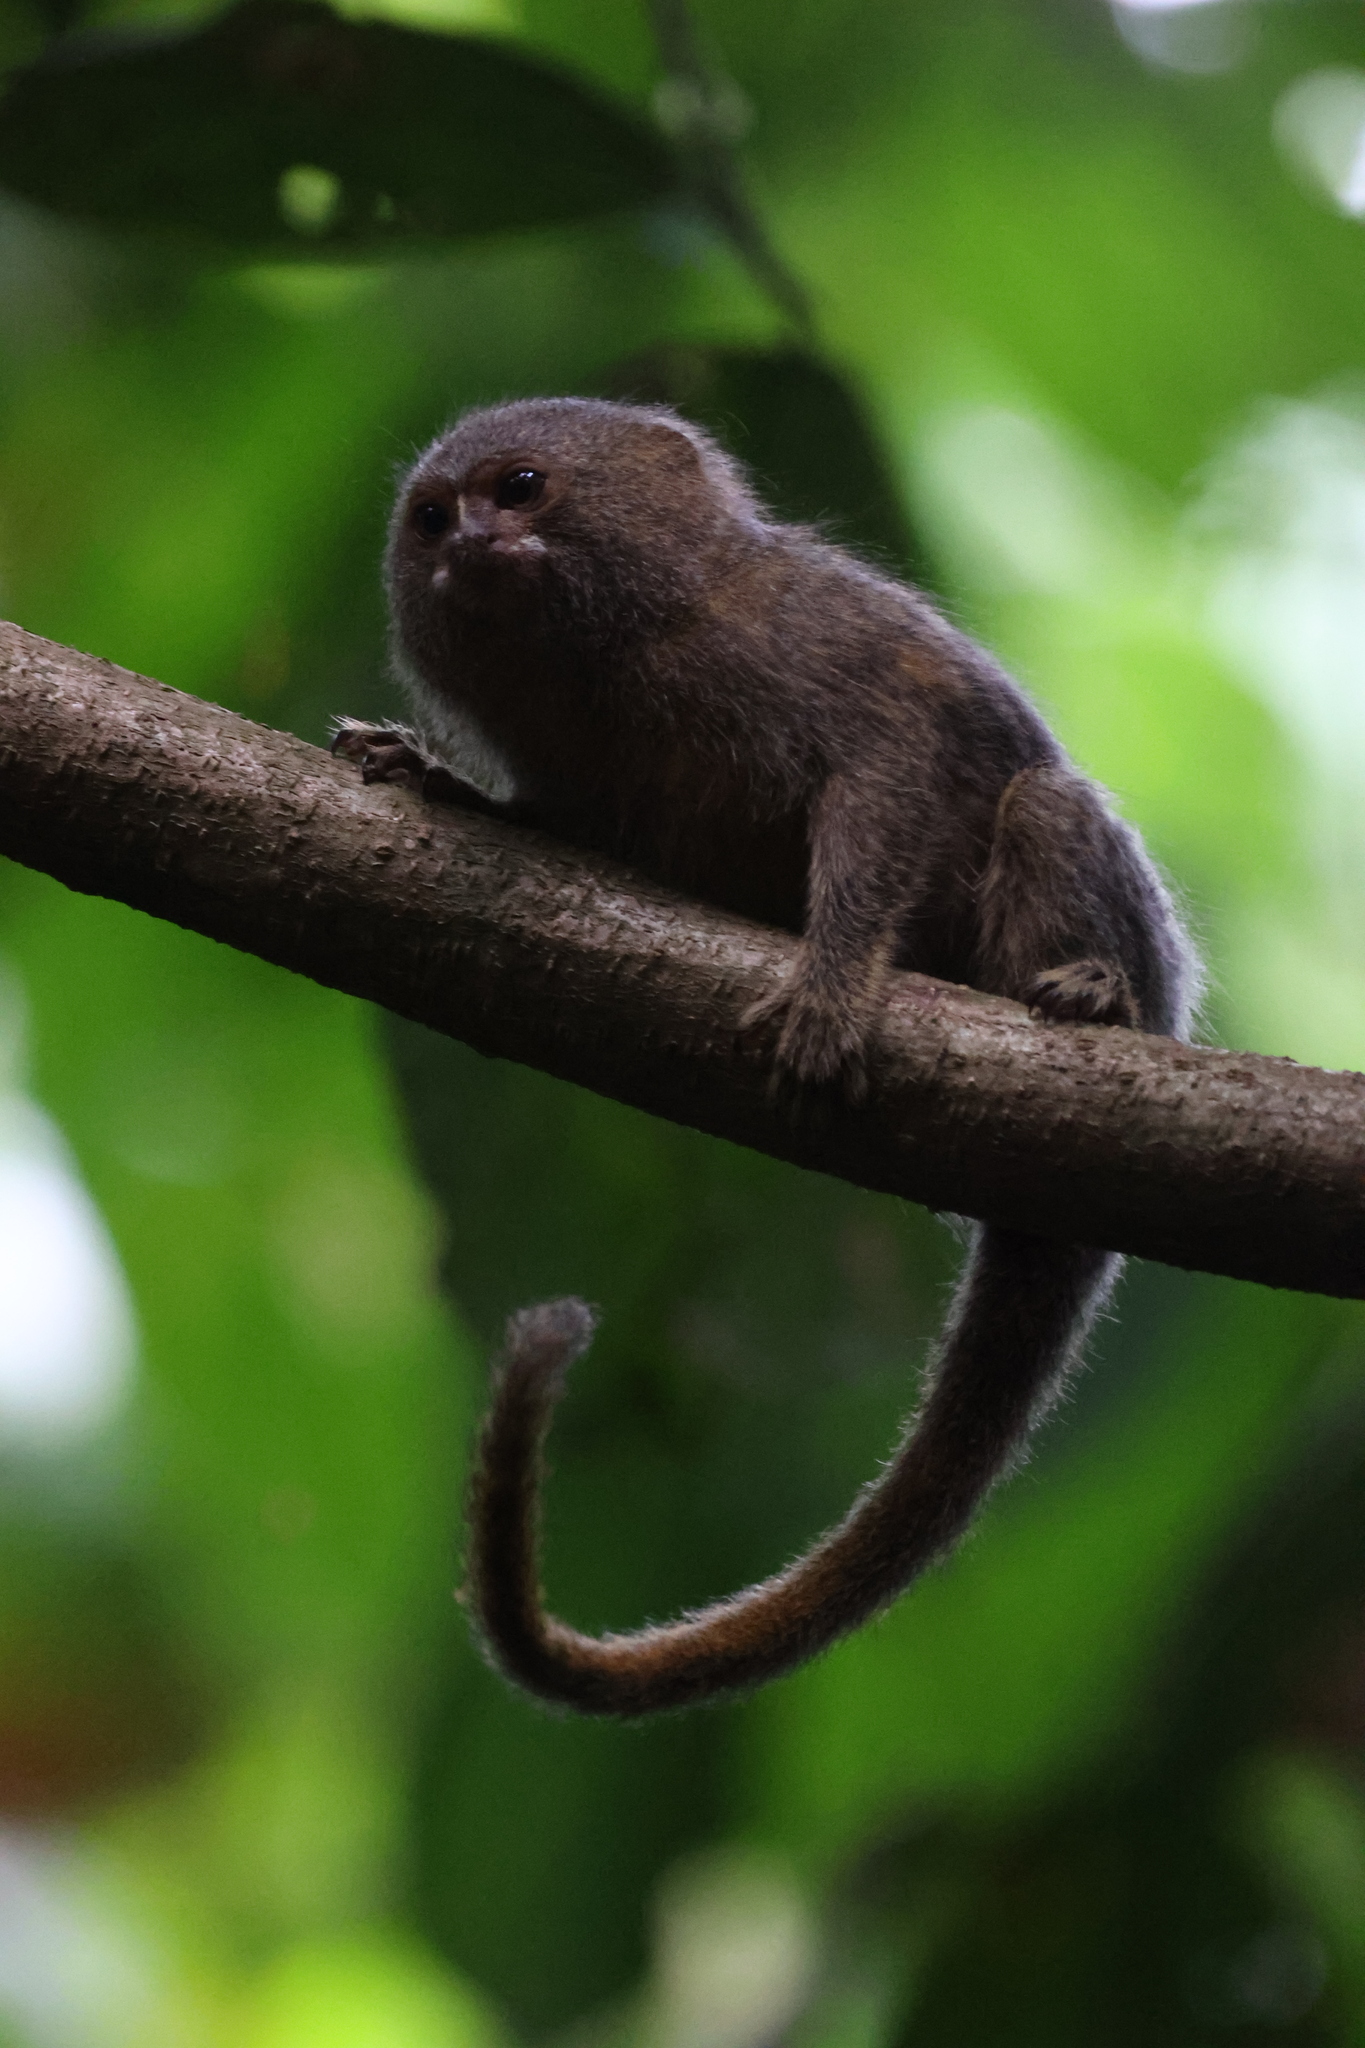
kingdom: Animalia
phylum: Chordata
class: Mammalia
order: Primates
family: Callitrichidae
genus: Cebuella
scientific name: Cebuella pygmaea
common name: Pygmy marmoset
